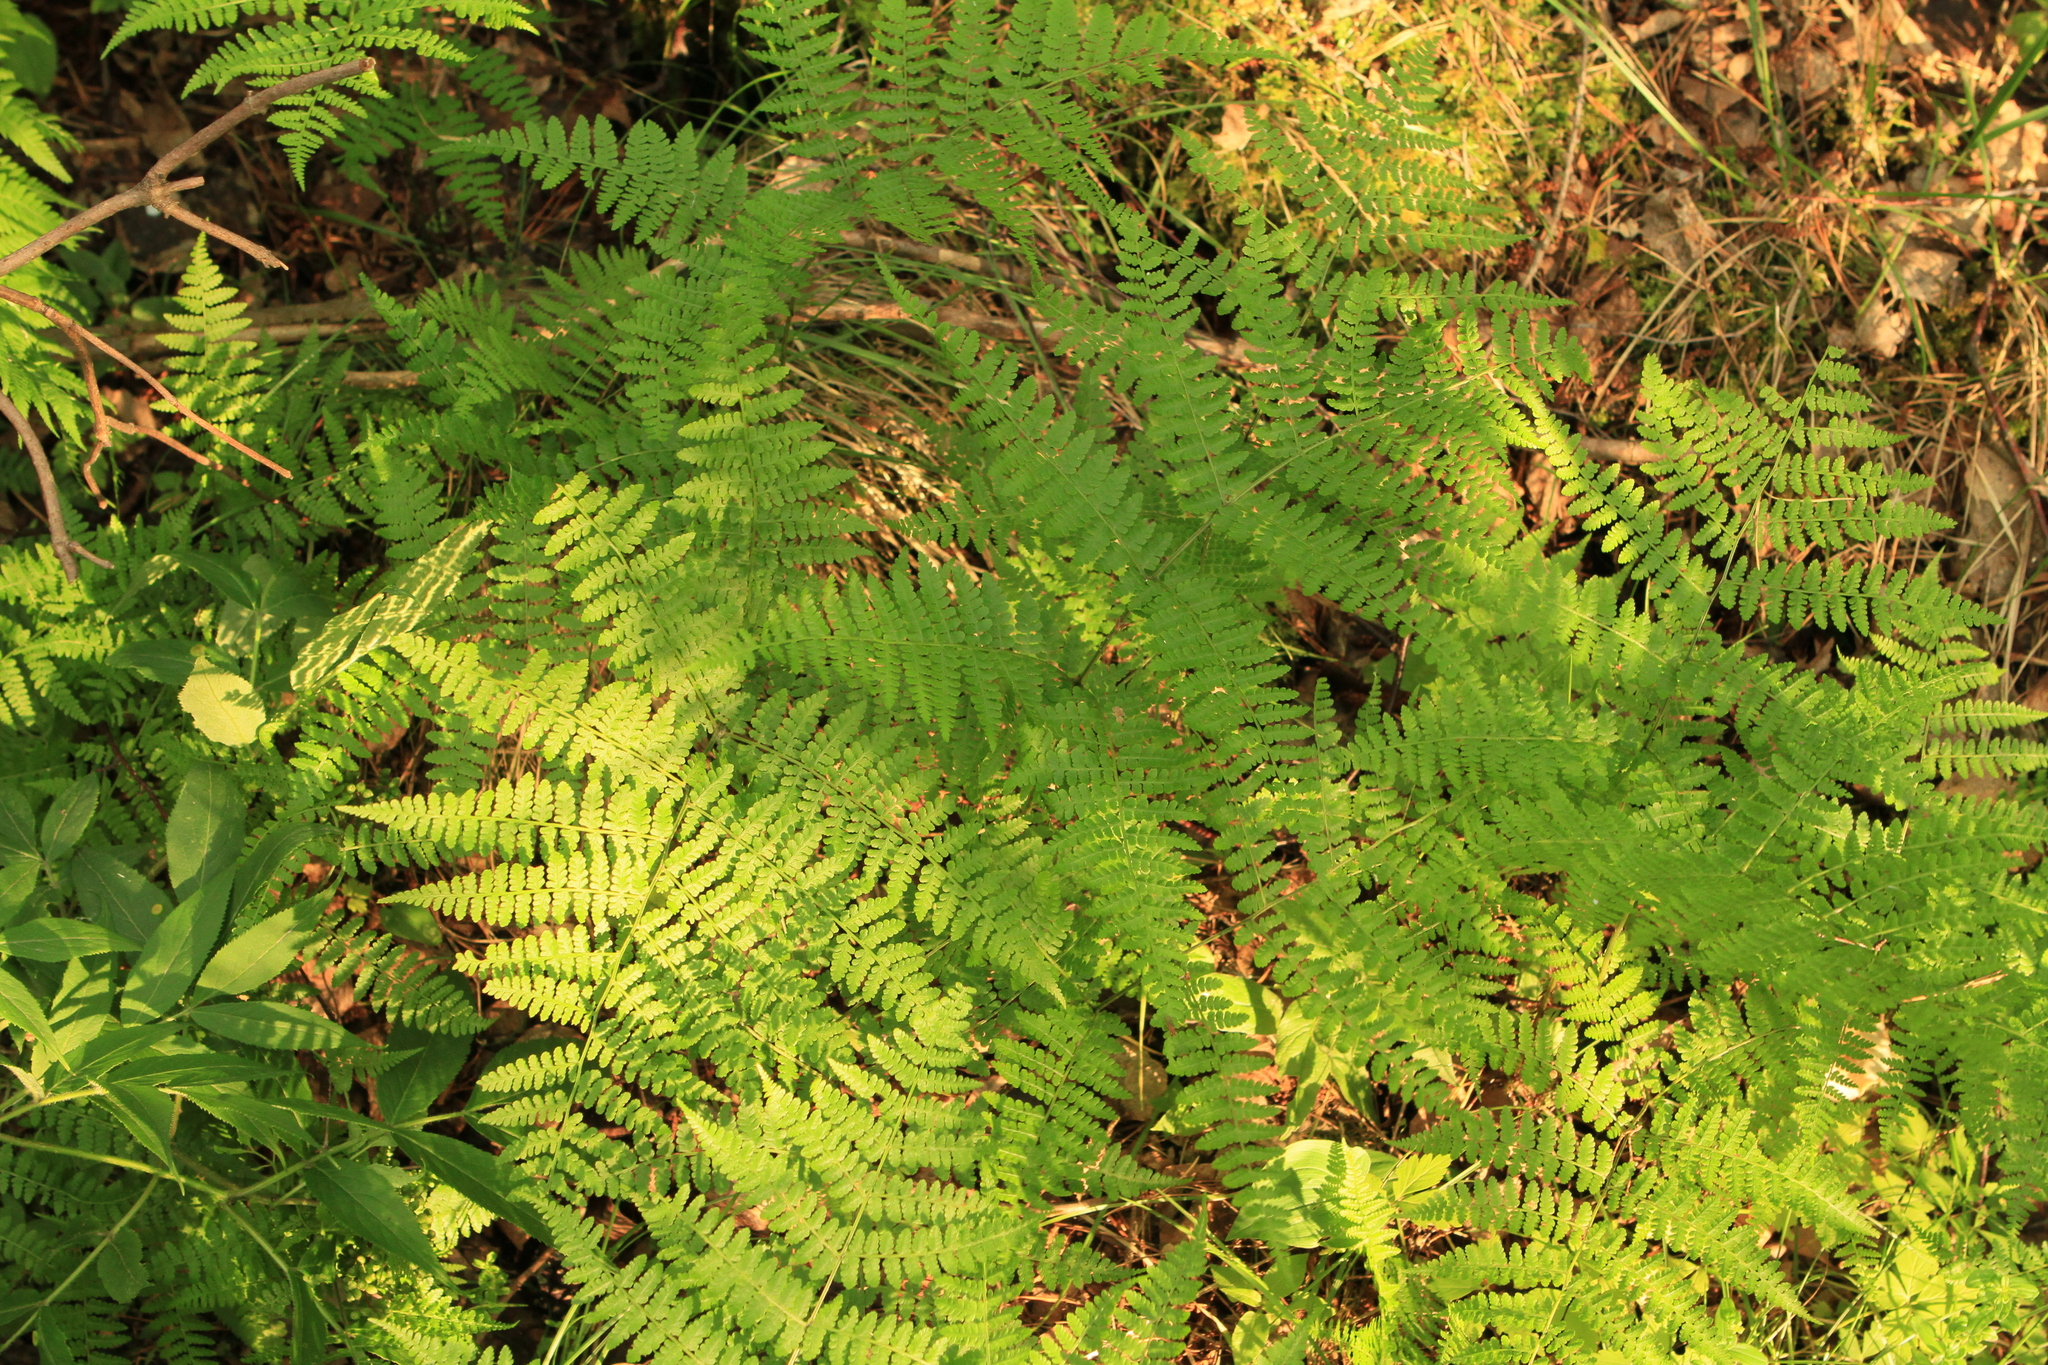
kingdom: Plantae
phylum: Tracheophyta
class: Polypodiopsida
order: Polypodiales
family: Athyriaceae
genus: Diplazium
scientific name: Diplazium sibiricum
